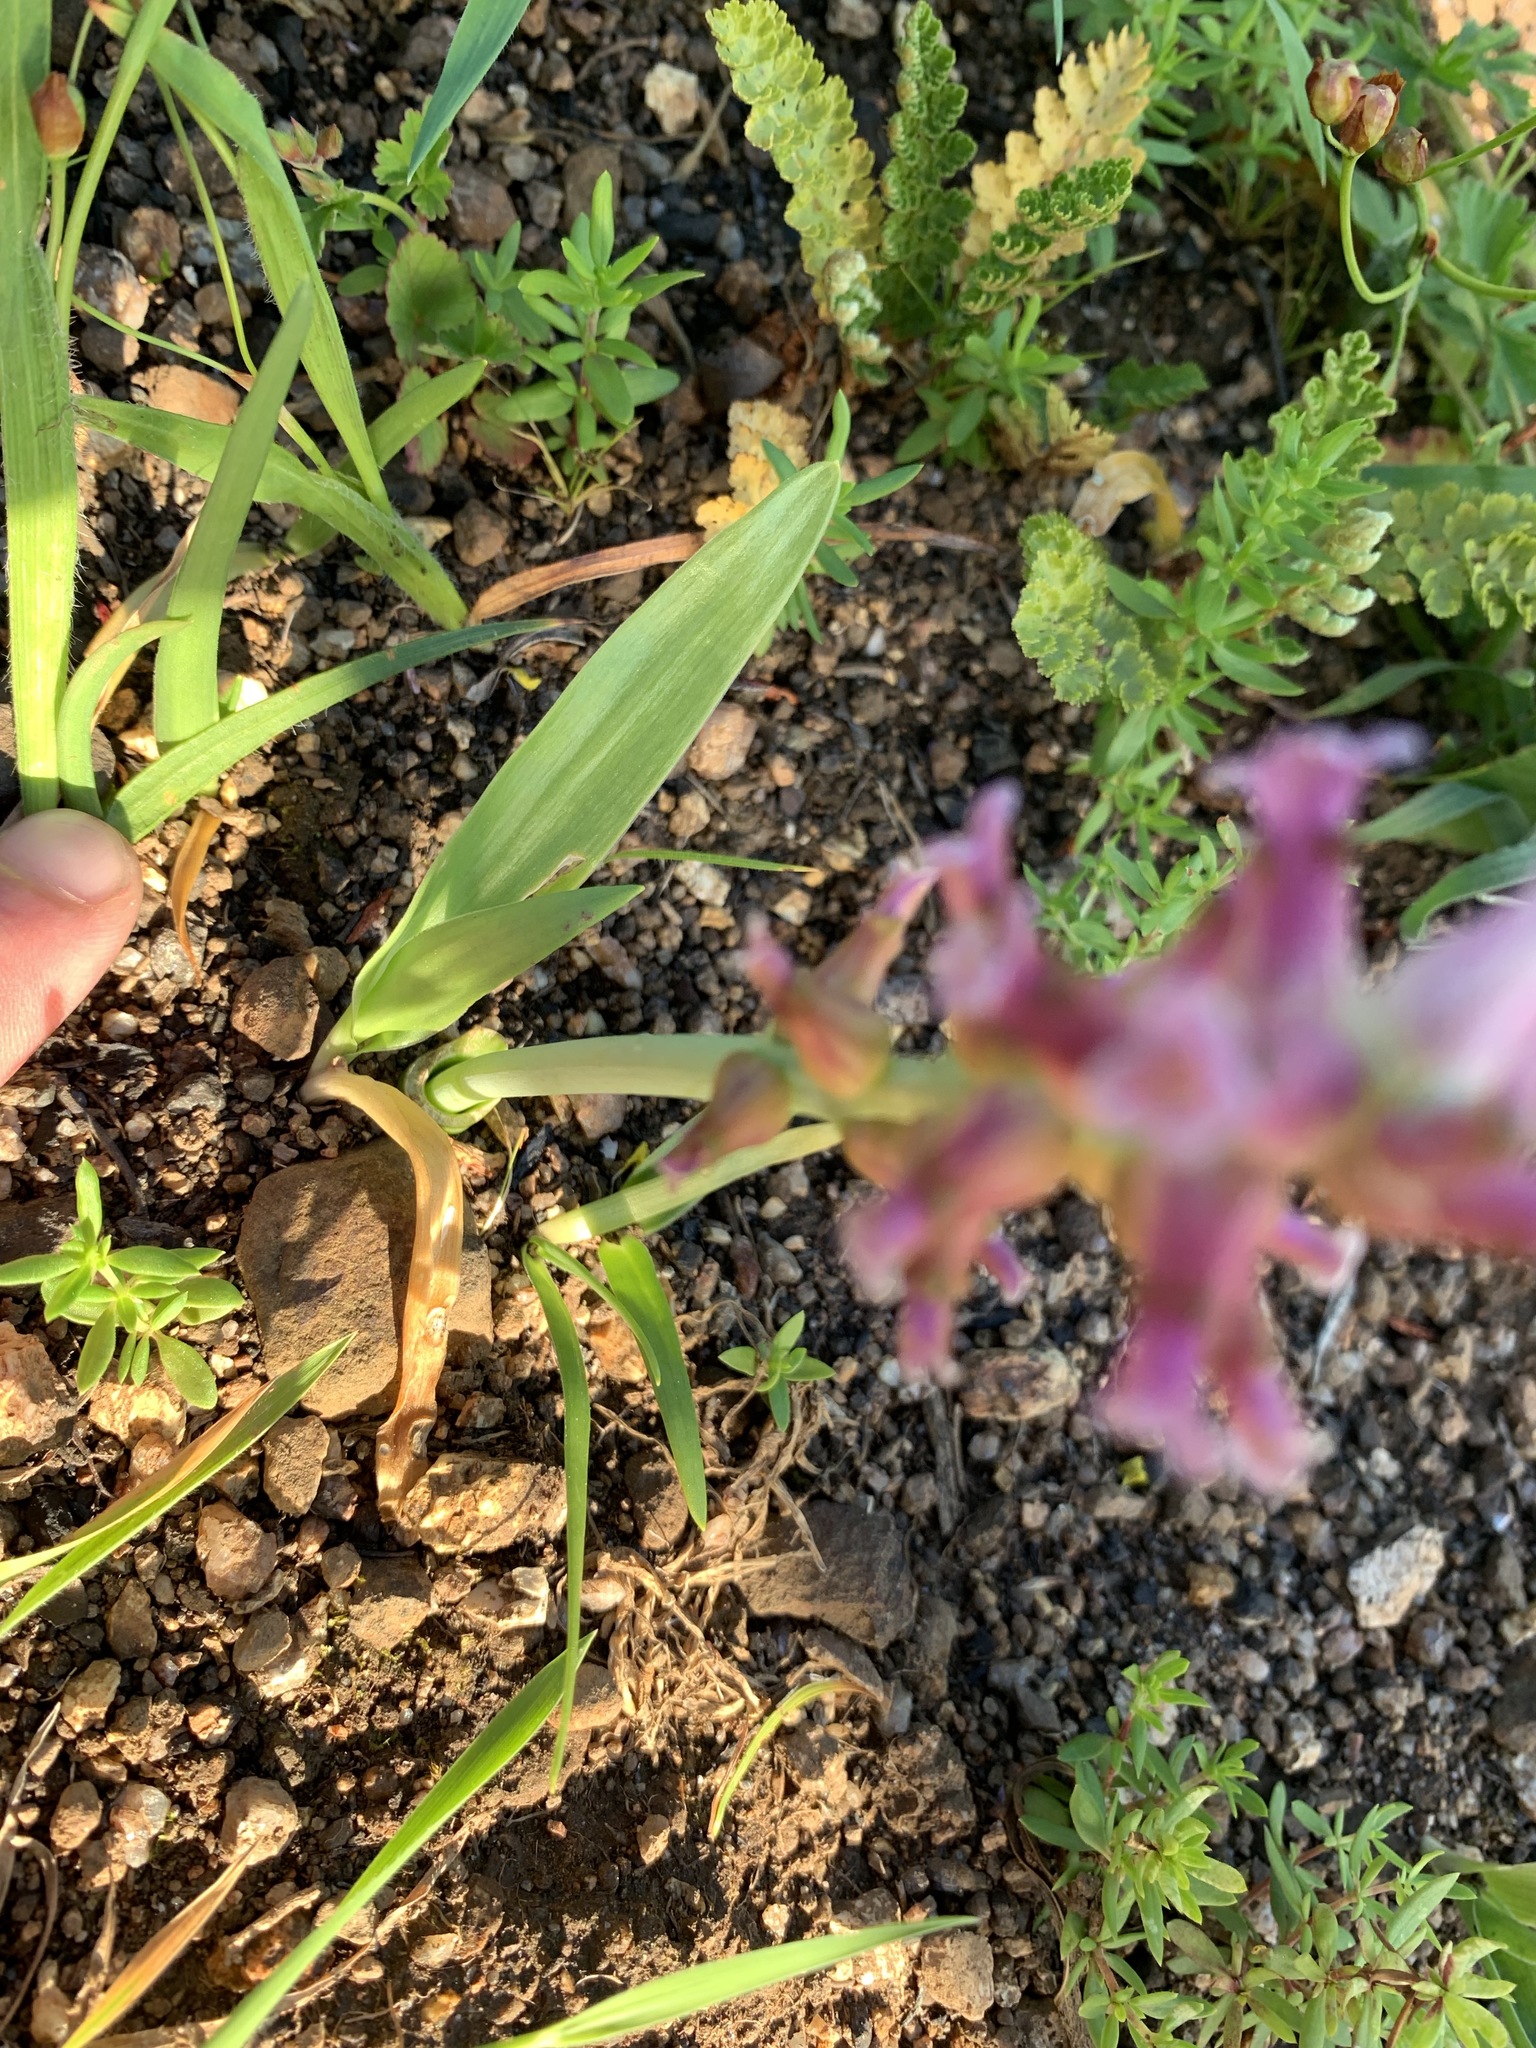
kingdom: Plantae
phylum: Tracheophyta
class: Liliopsida
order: Asparagales
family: Asparagaceae
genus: Lachenalia
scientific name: Lachenalia fistulosa
